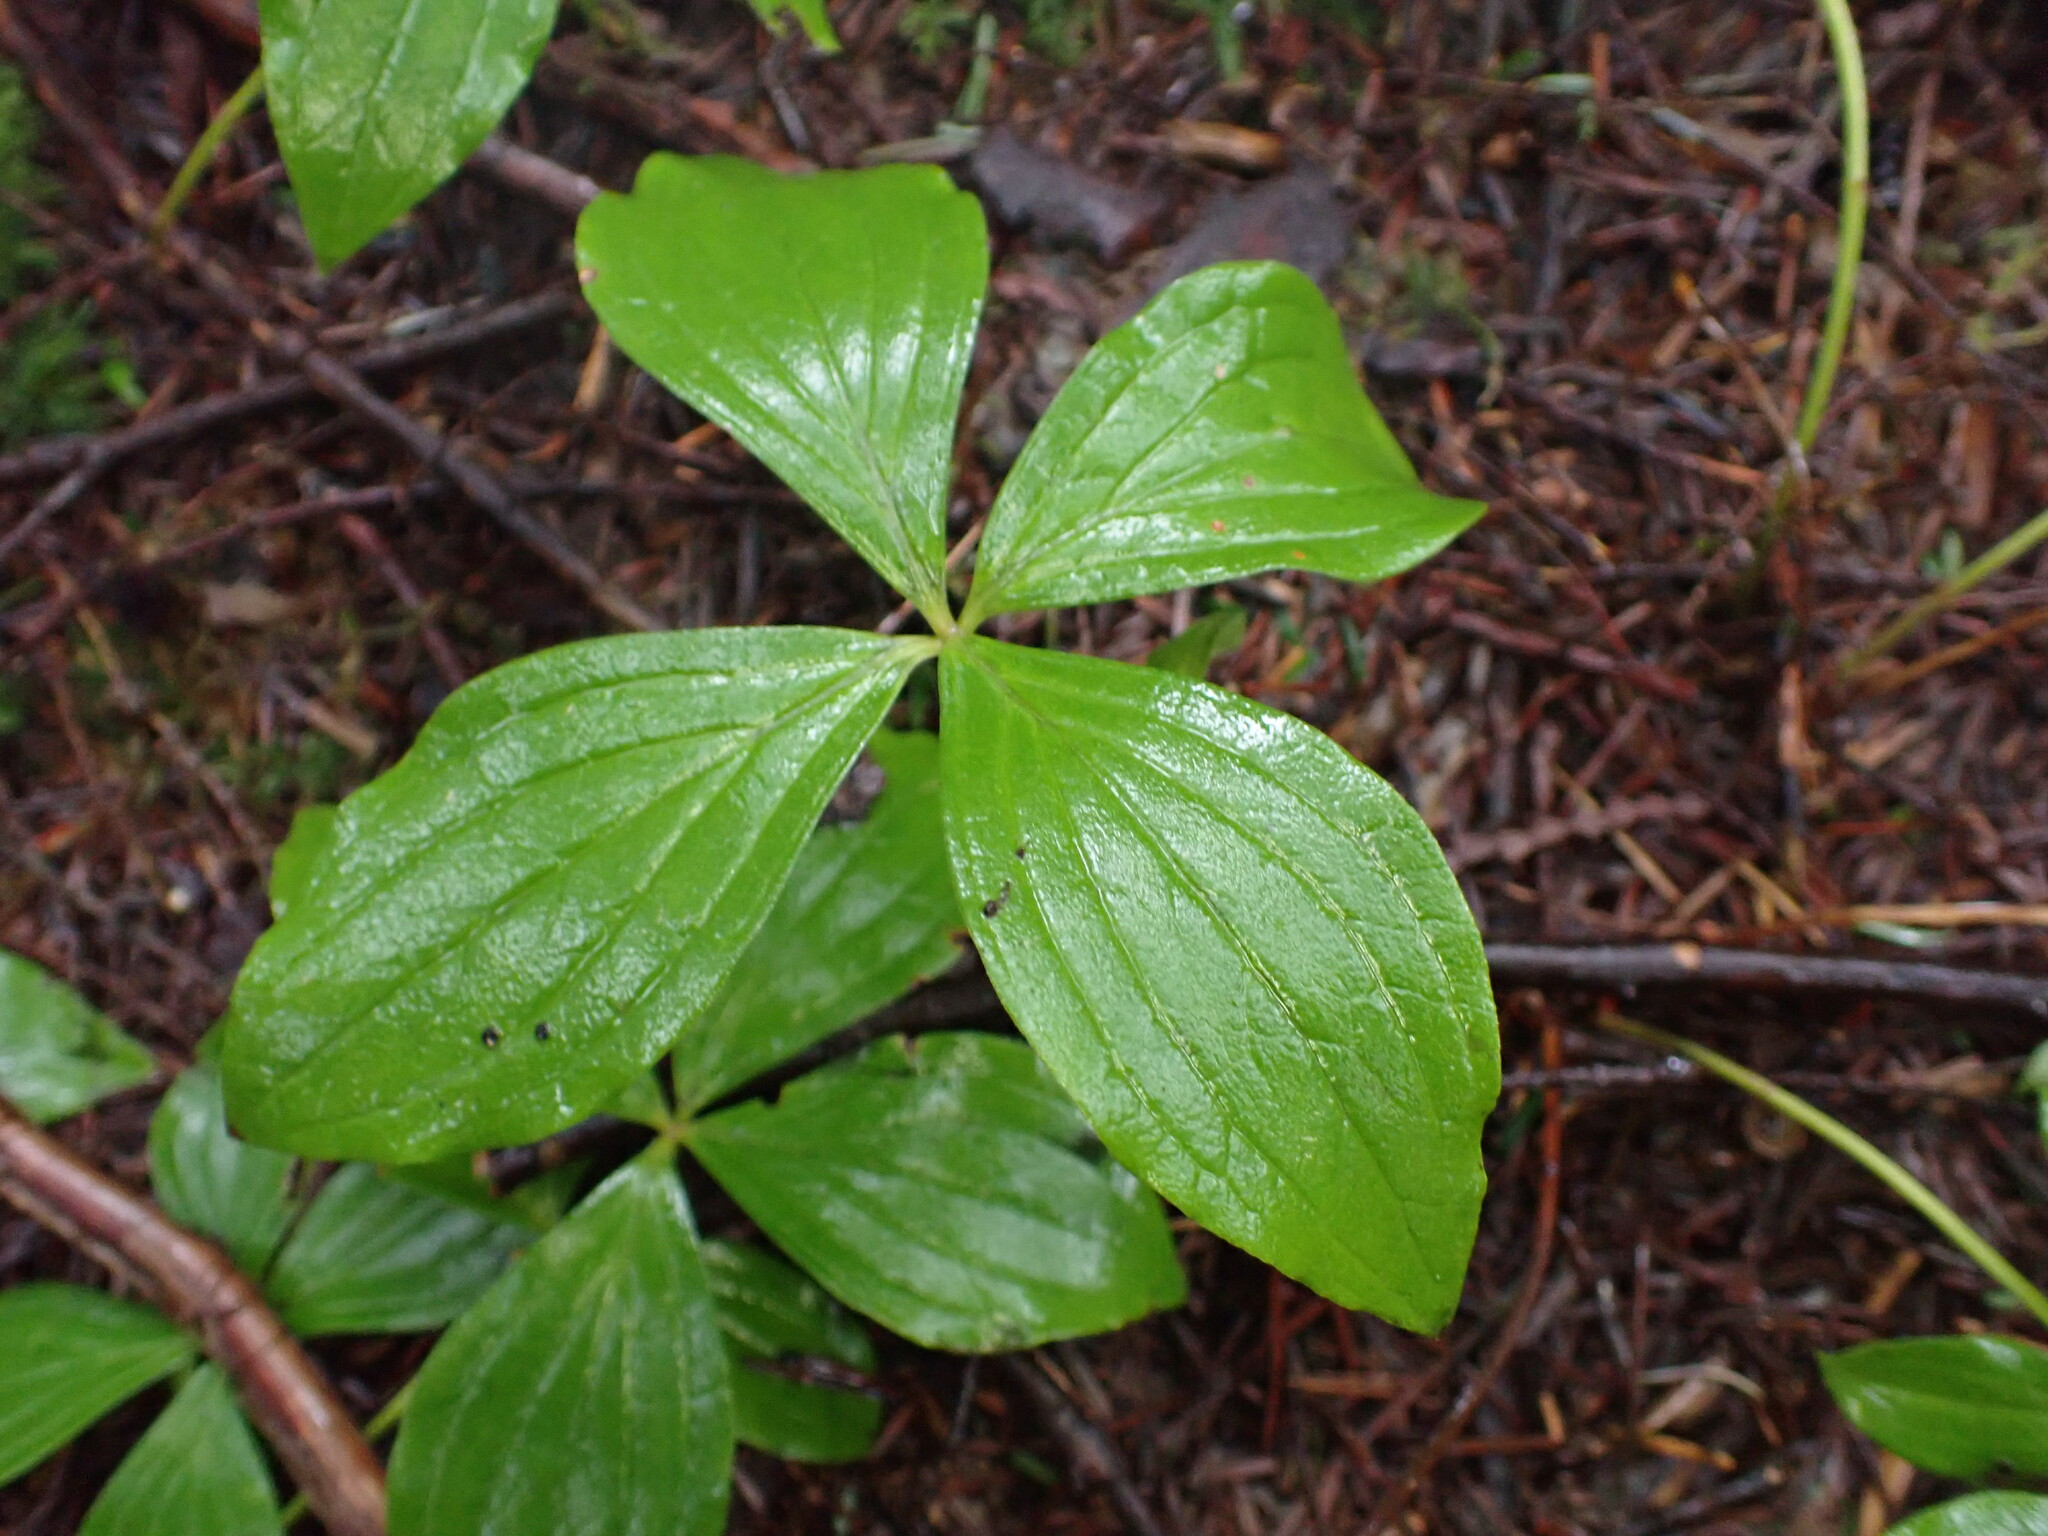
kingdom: Plantae
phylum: Tracheophyta
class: Magnoliopsida
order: Cornales
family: Cornaceae
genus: Cornus
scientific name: Cornus unalaschkensis
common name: Alaska bunchberry
